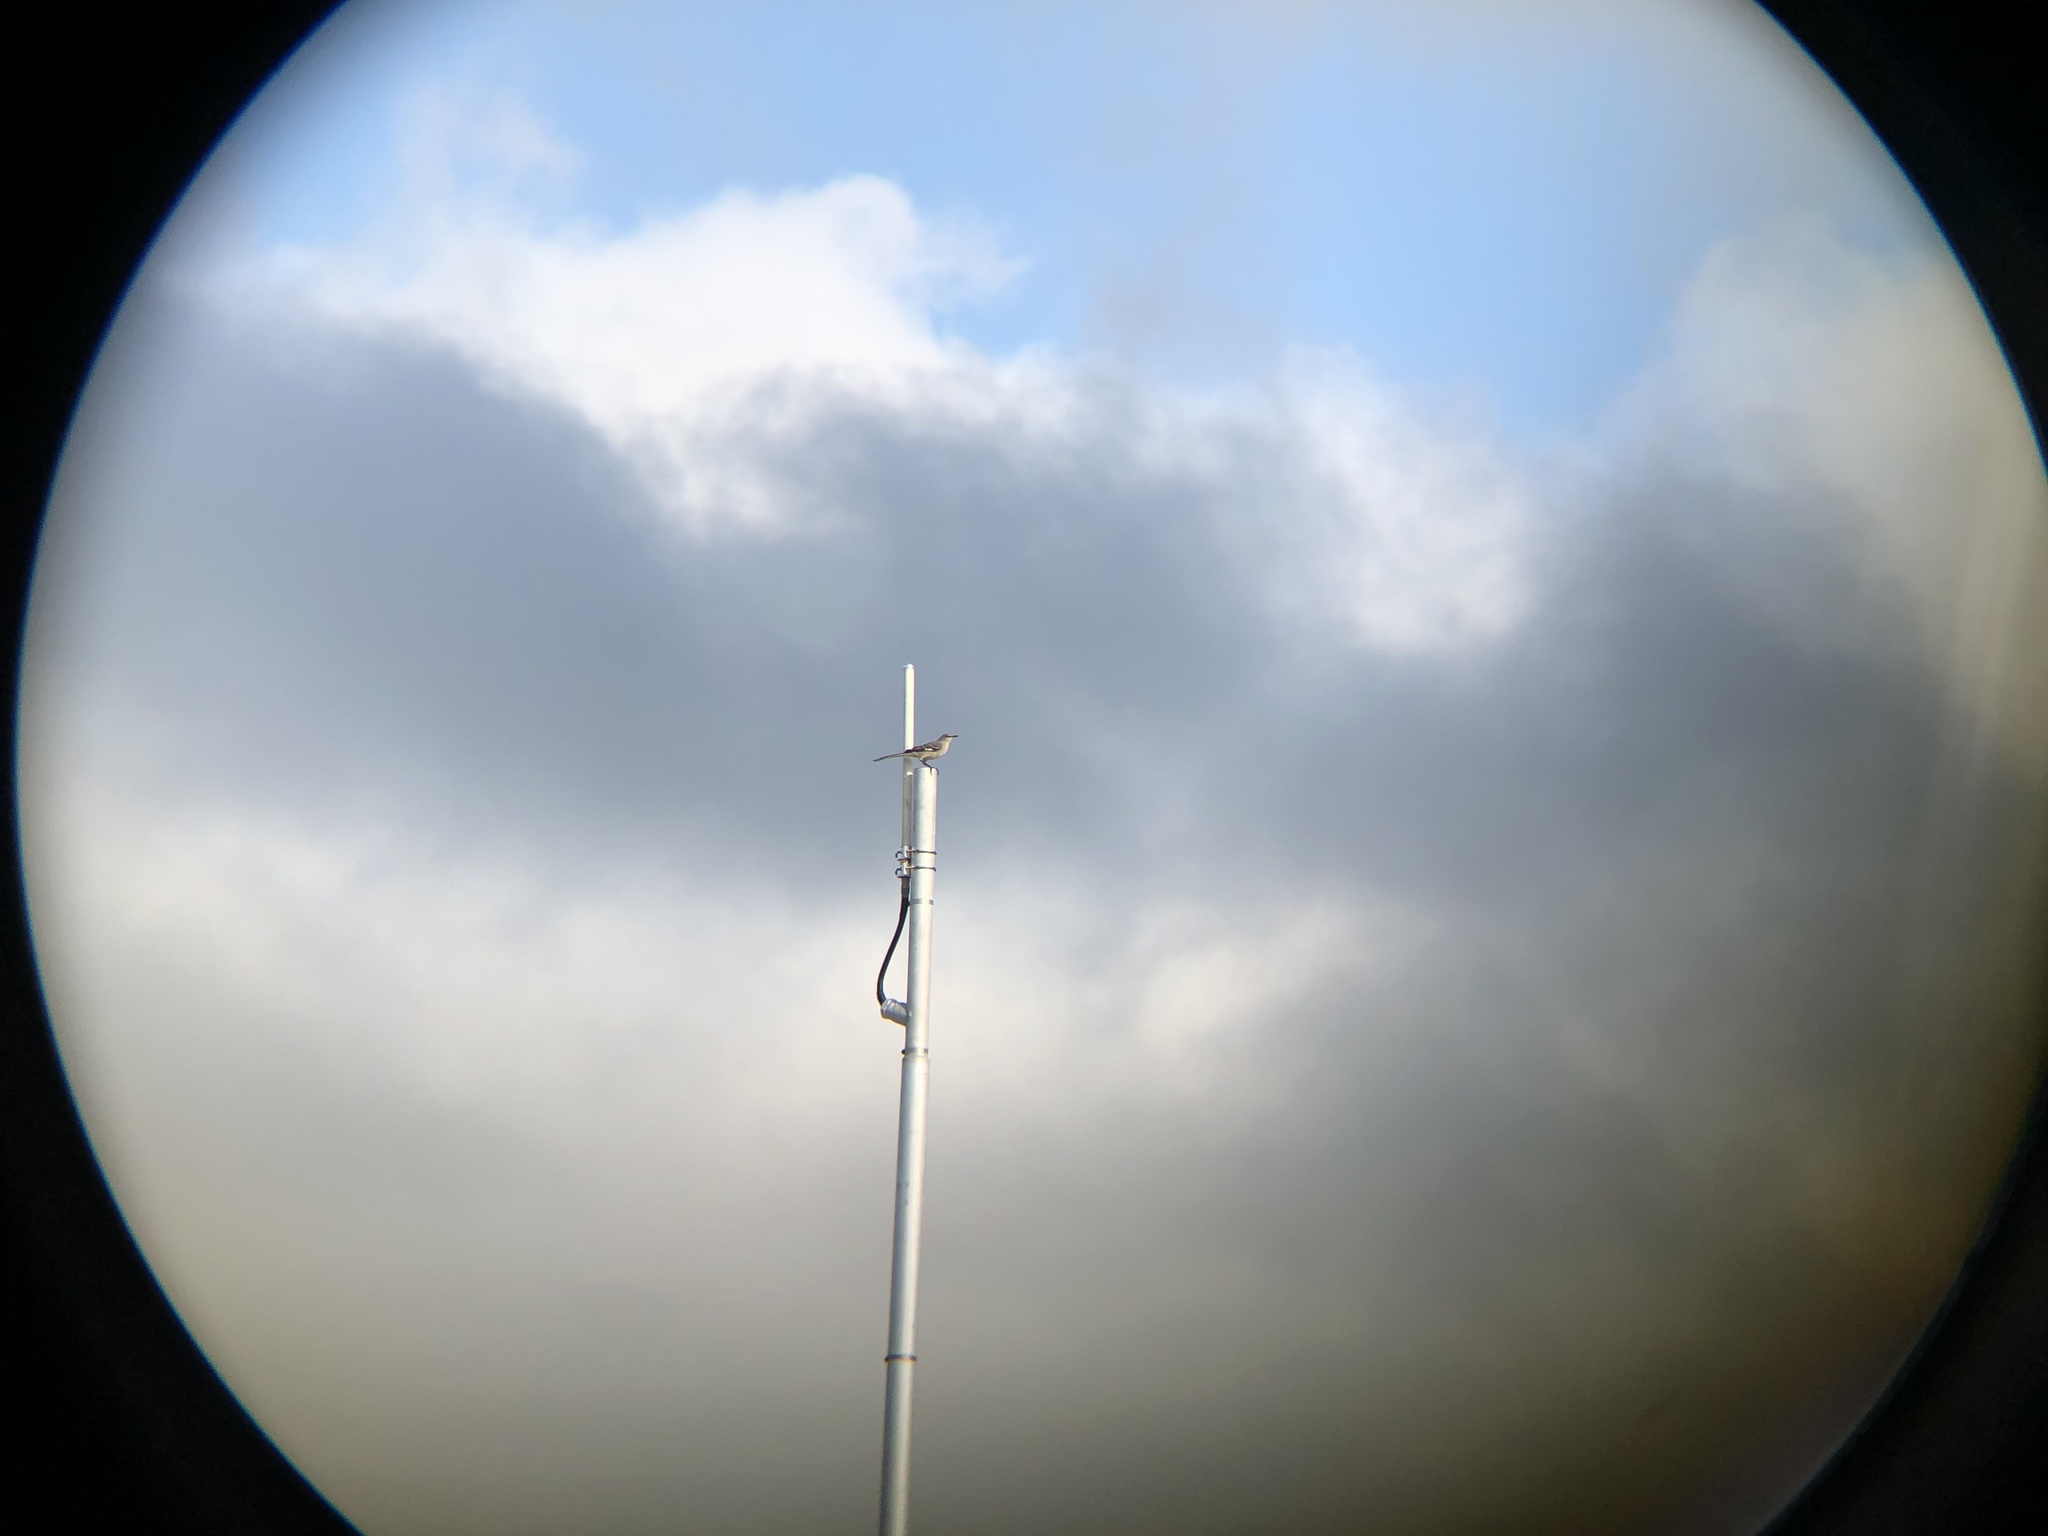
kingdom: Animalia
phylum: Chordata
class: Aves
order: Passeriformes
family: Mimidae
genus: Mimus
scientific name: Mimus polyglottos
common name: Northern mockingbird
